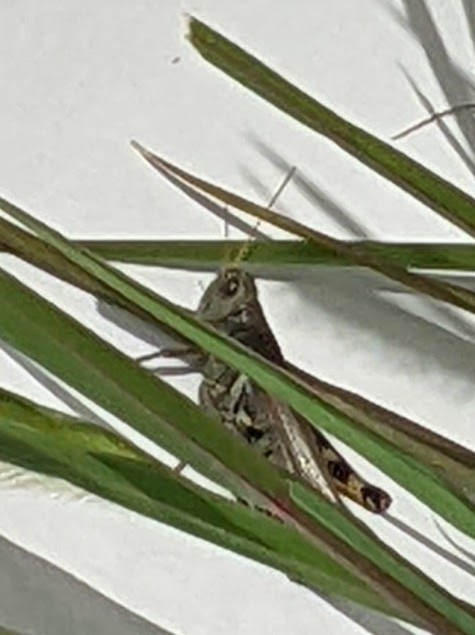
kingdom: Animalia
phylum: Arthropoda
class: Insecta
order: Orthoptera
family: Acrididae
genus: Melanoplus
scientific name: Melanoplus differentialis
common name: Differential grasshopper
